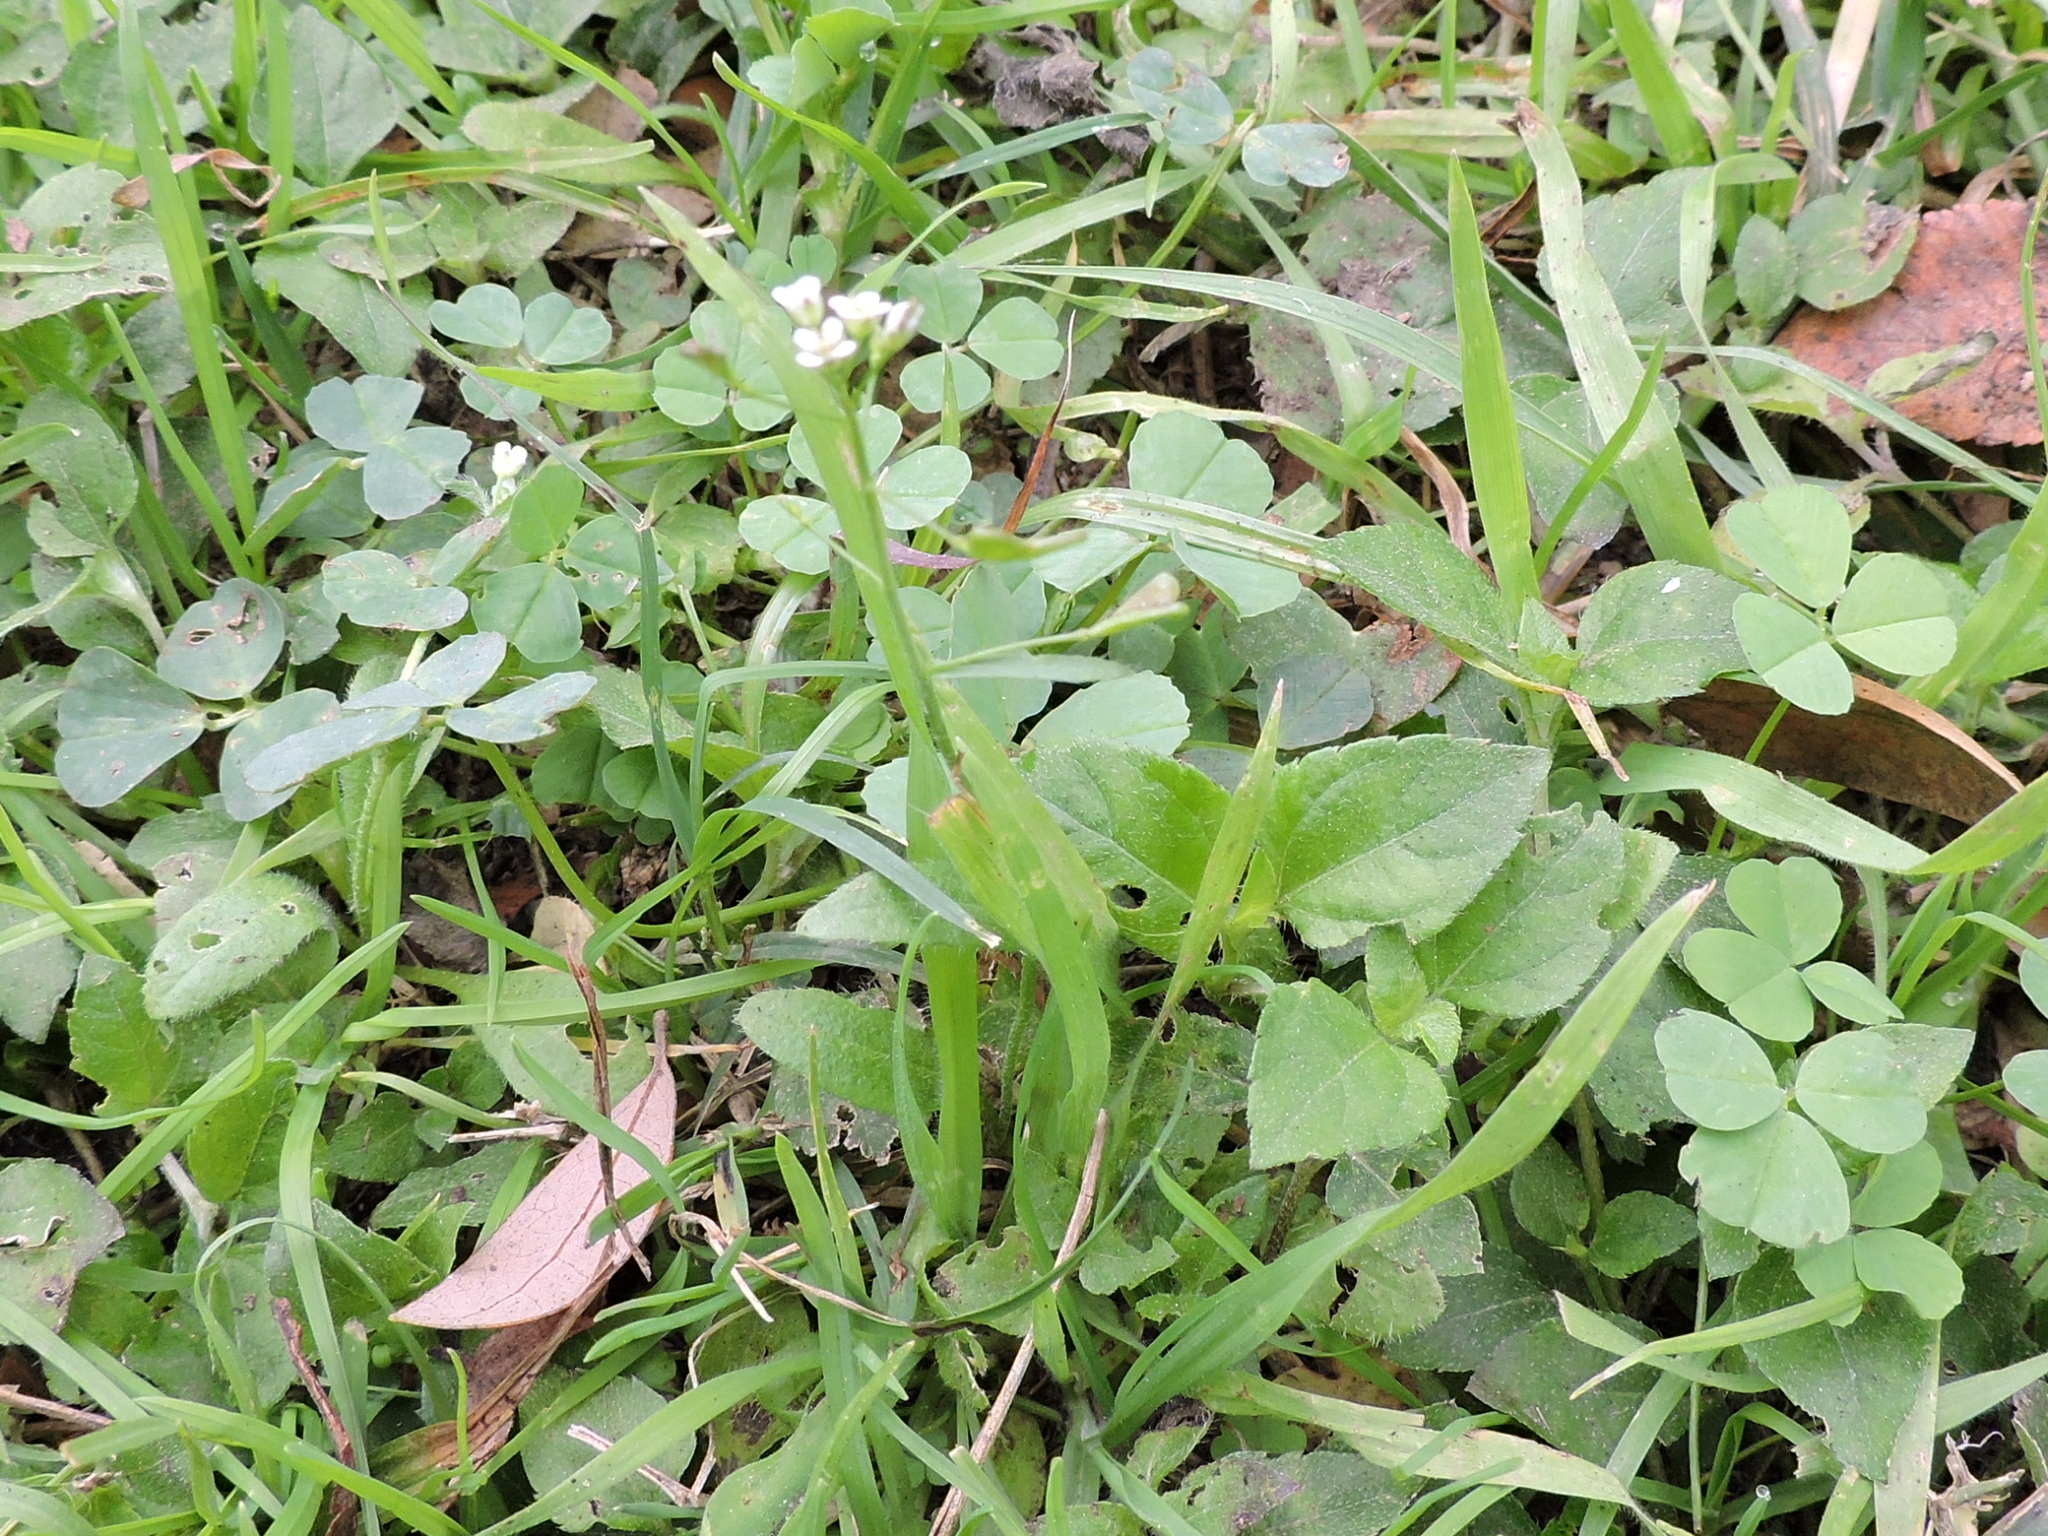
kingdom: Plantae
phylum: Tracheophyta
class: Magnoliopsida
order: Brassicales
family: Brassicaceae
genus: Capsella
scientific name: Capsella bursa-pastoris
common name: Shepherd's purse
